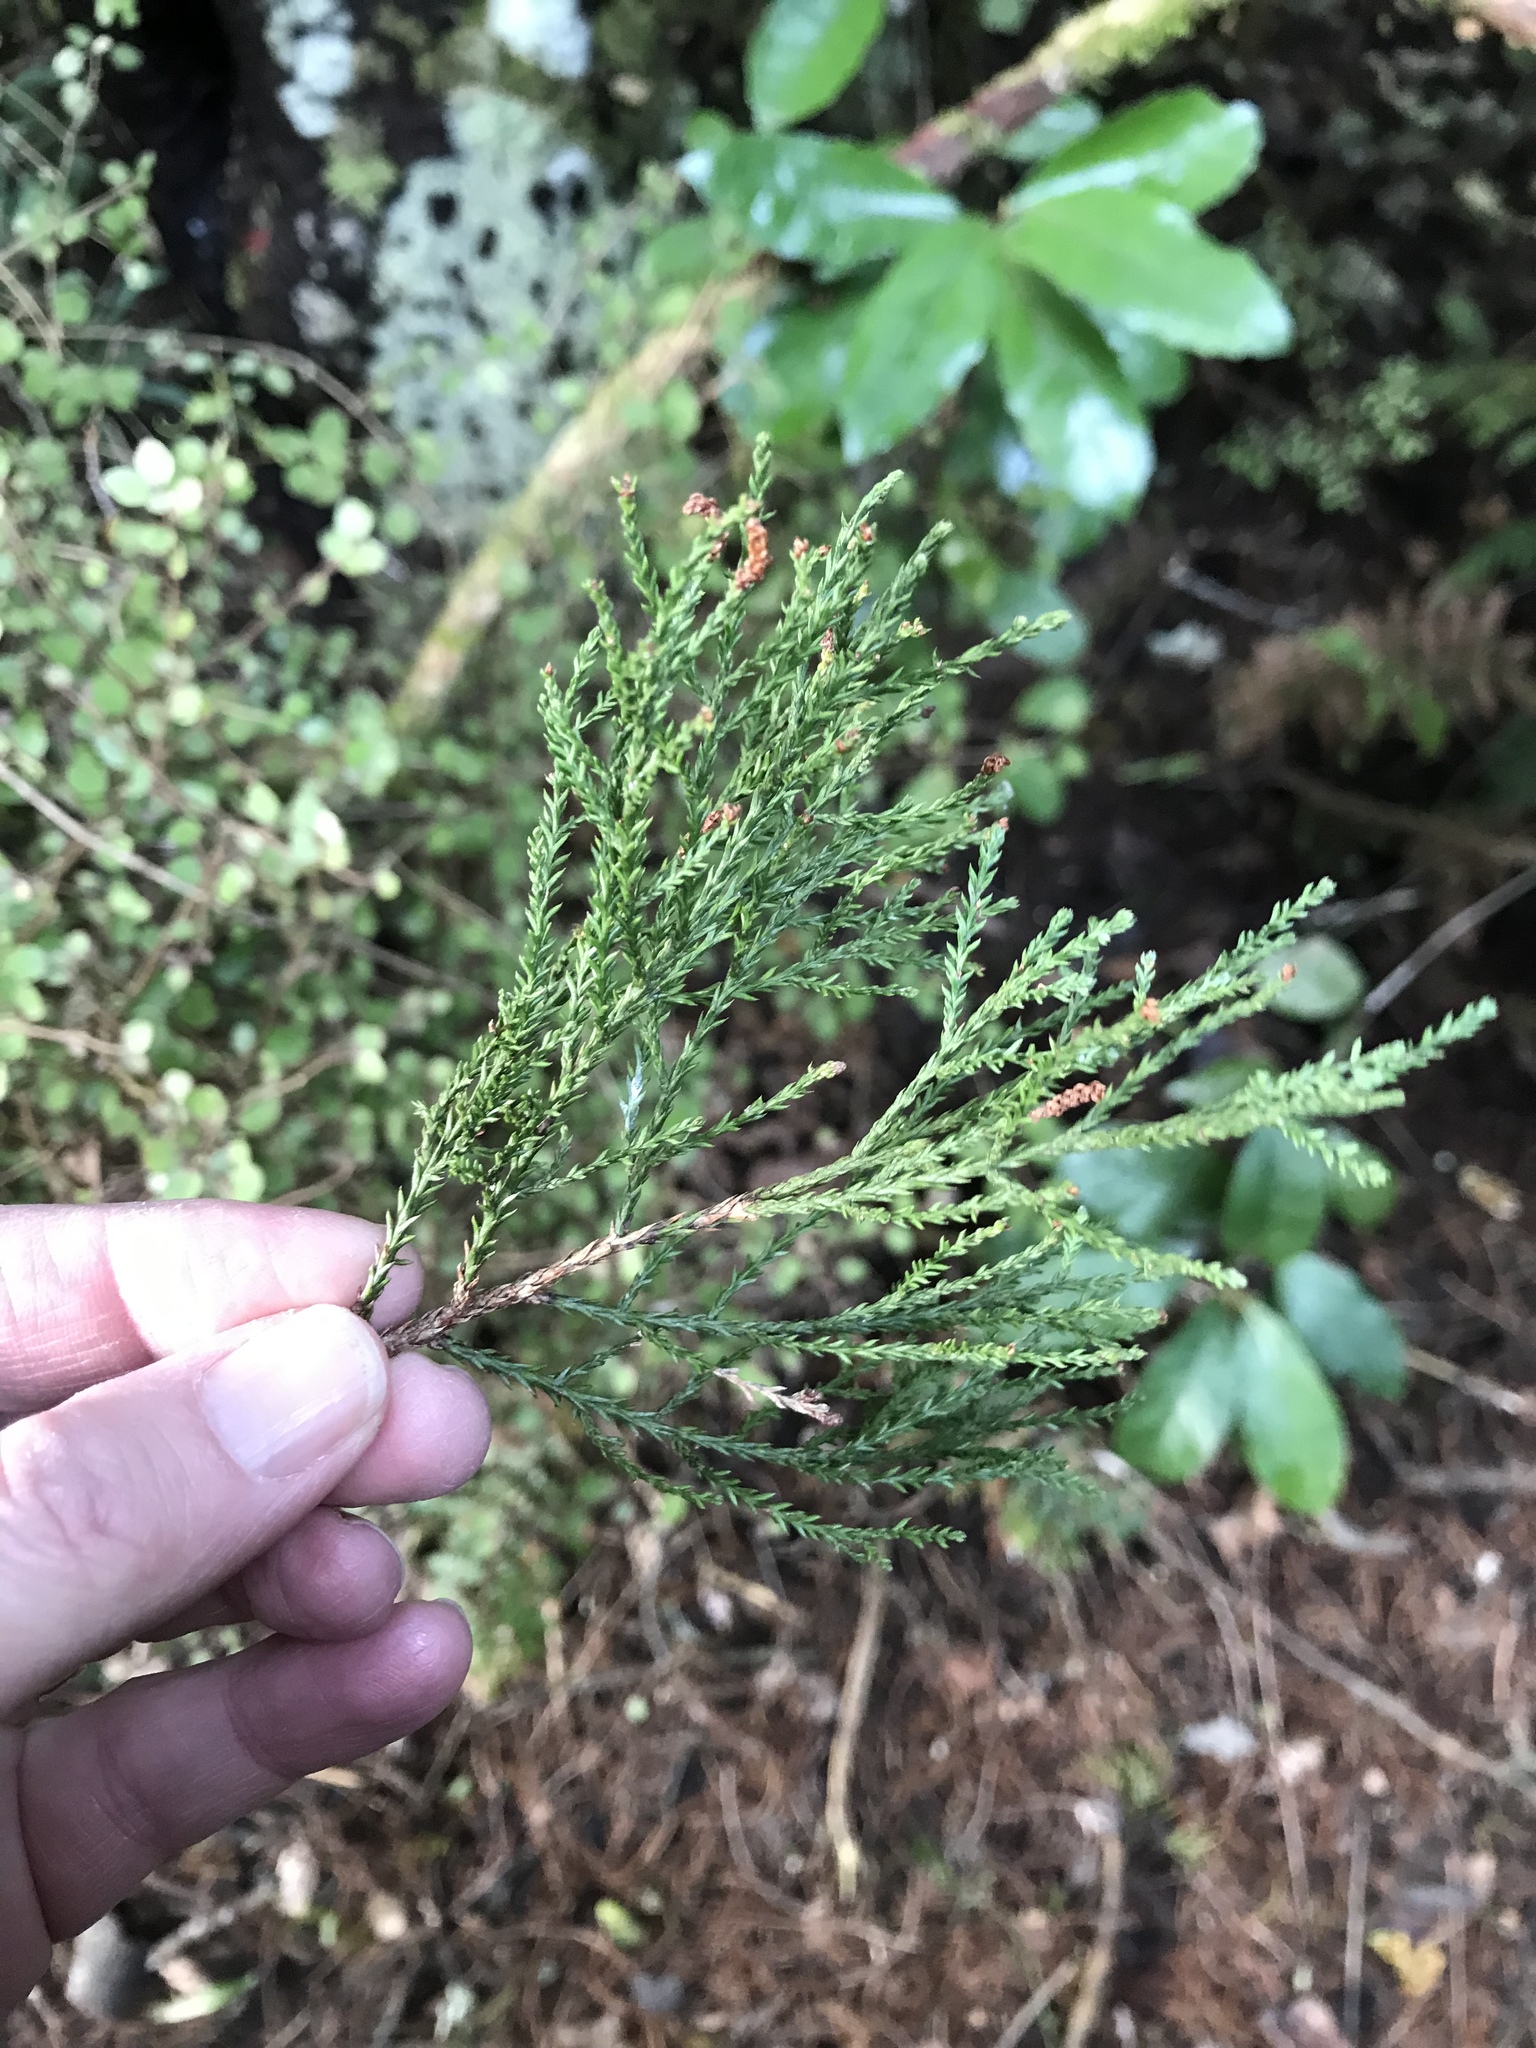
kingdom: Plantae
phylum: Tracheophyta
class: Pinopsida
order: Pinales
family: Podocarpaceae
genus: Dacrycarpus
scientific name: Dacrycarpus dacrydioides
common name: White pine
